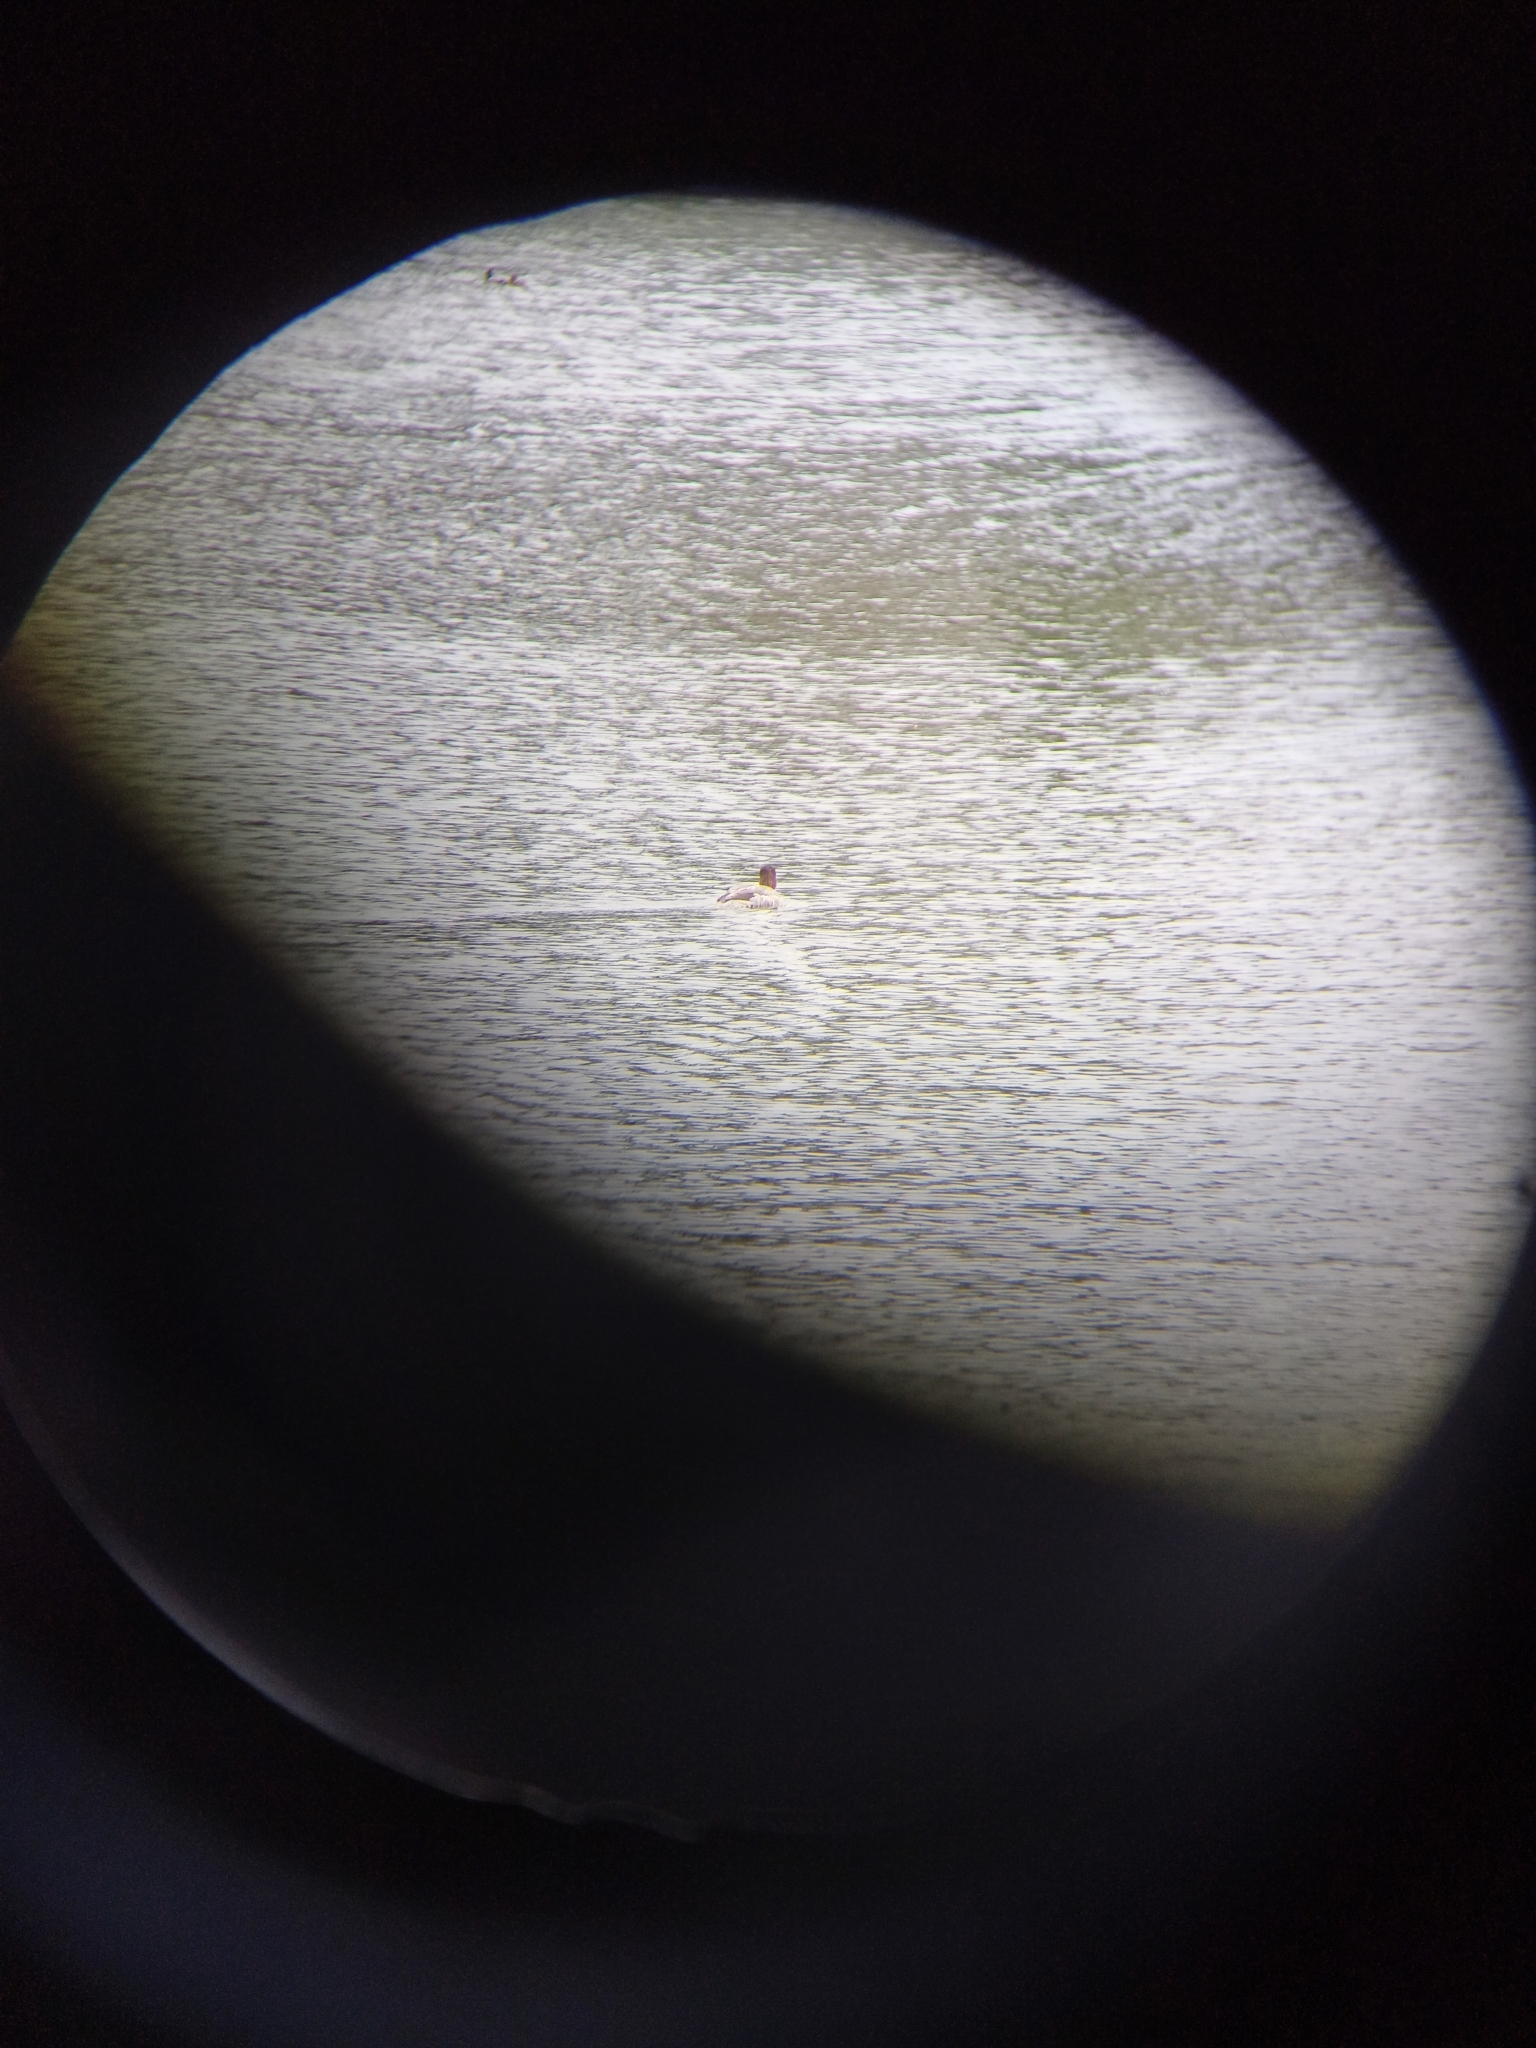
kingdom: Animalia
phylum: Chordata
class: Aves
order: Anseriformes
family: Anatidae
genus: Mergus
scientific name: Mergus merganser
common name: Common merganser
